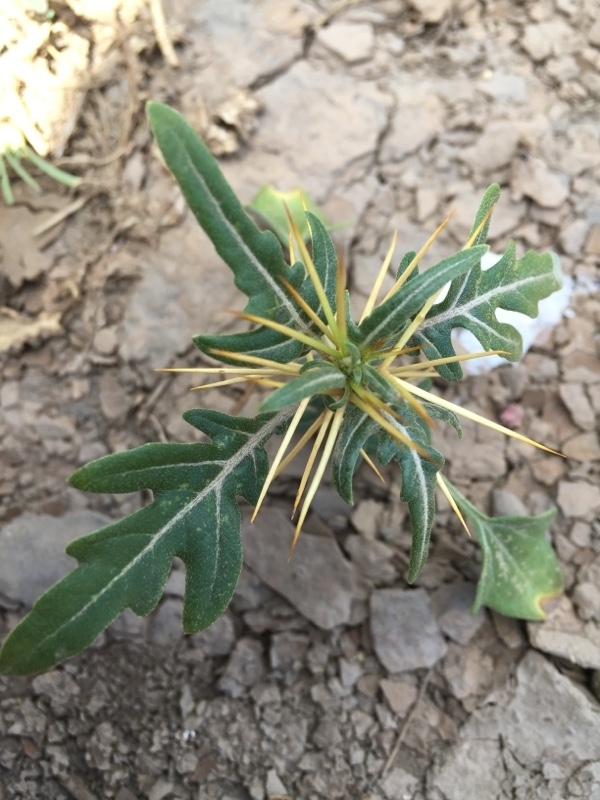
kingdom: Plantae
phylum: Tracheophyta
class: Magnoliopsida
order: Asterales
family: Asteraceae
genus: Xanthium
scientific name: Xanthium spinosum
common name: Spiny cocklebur
